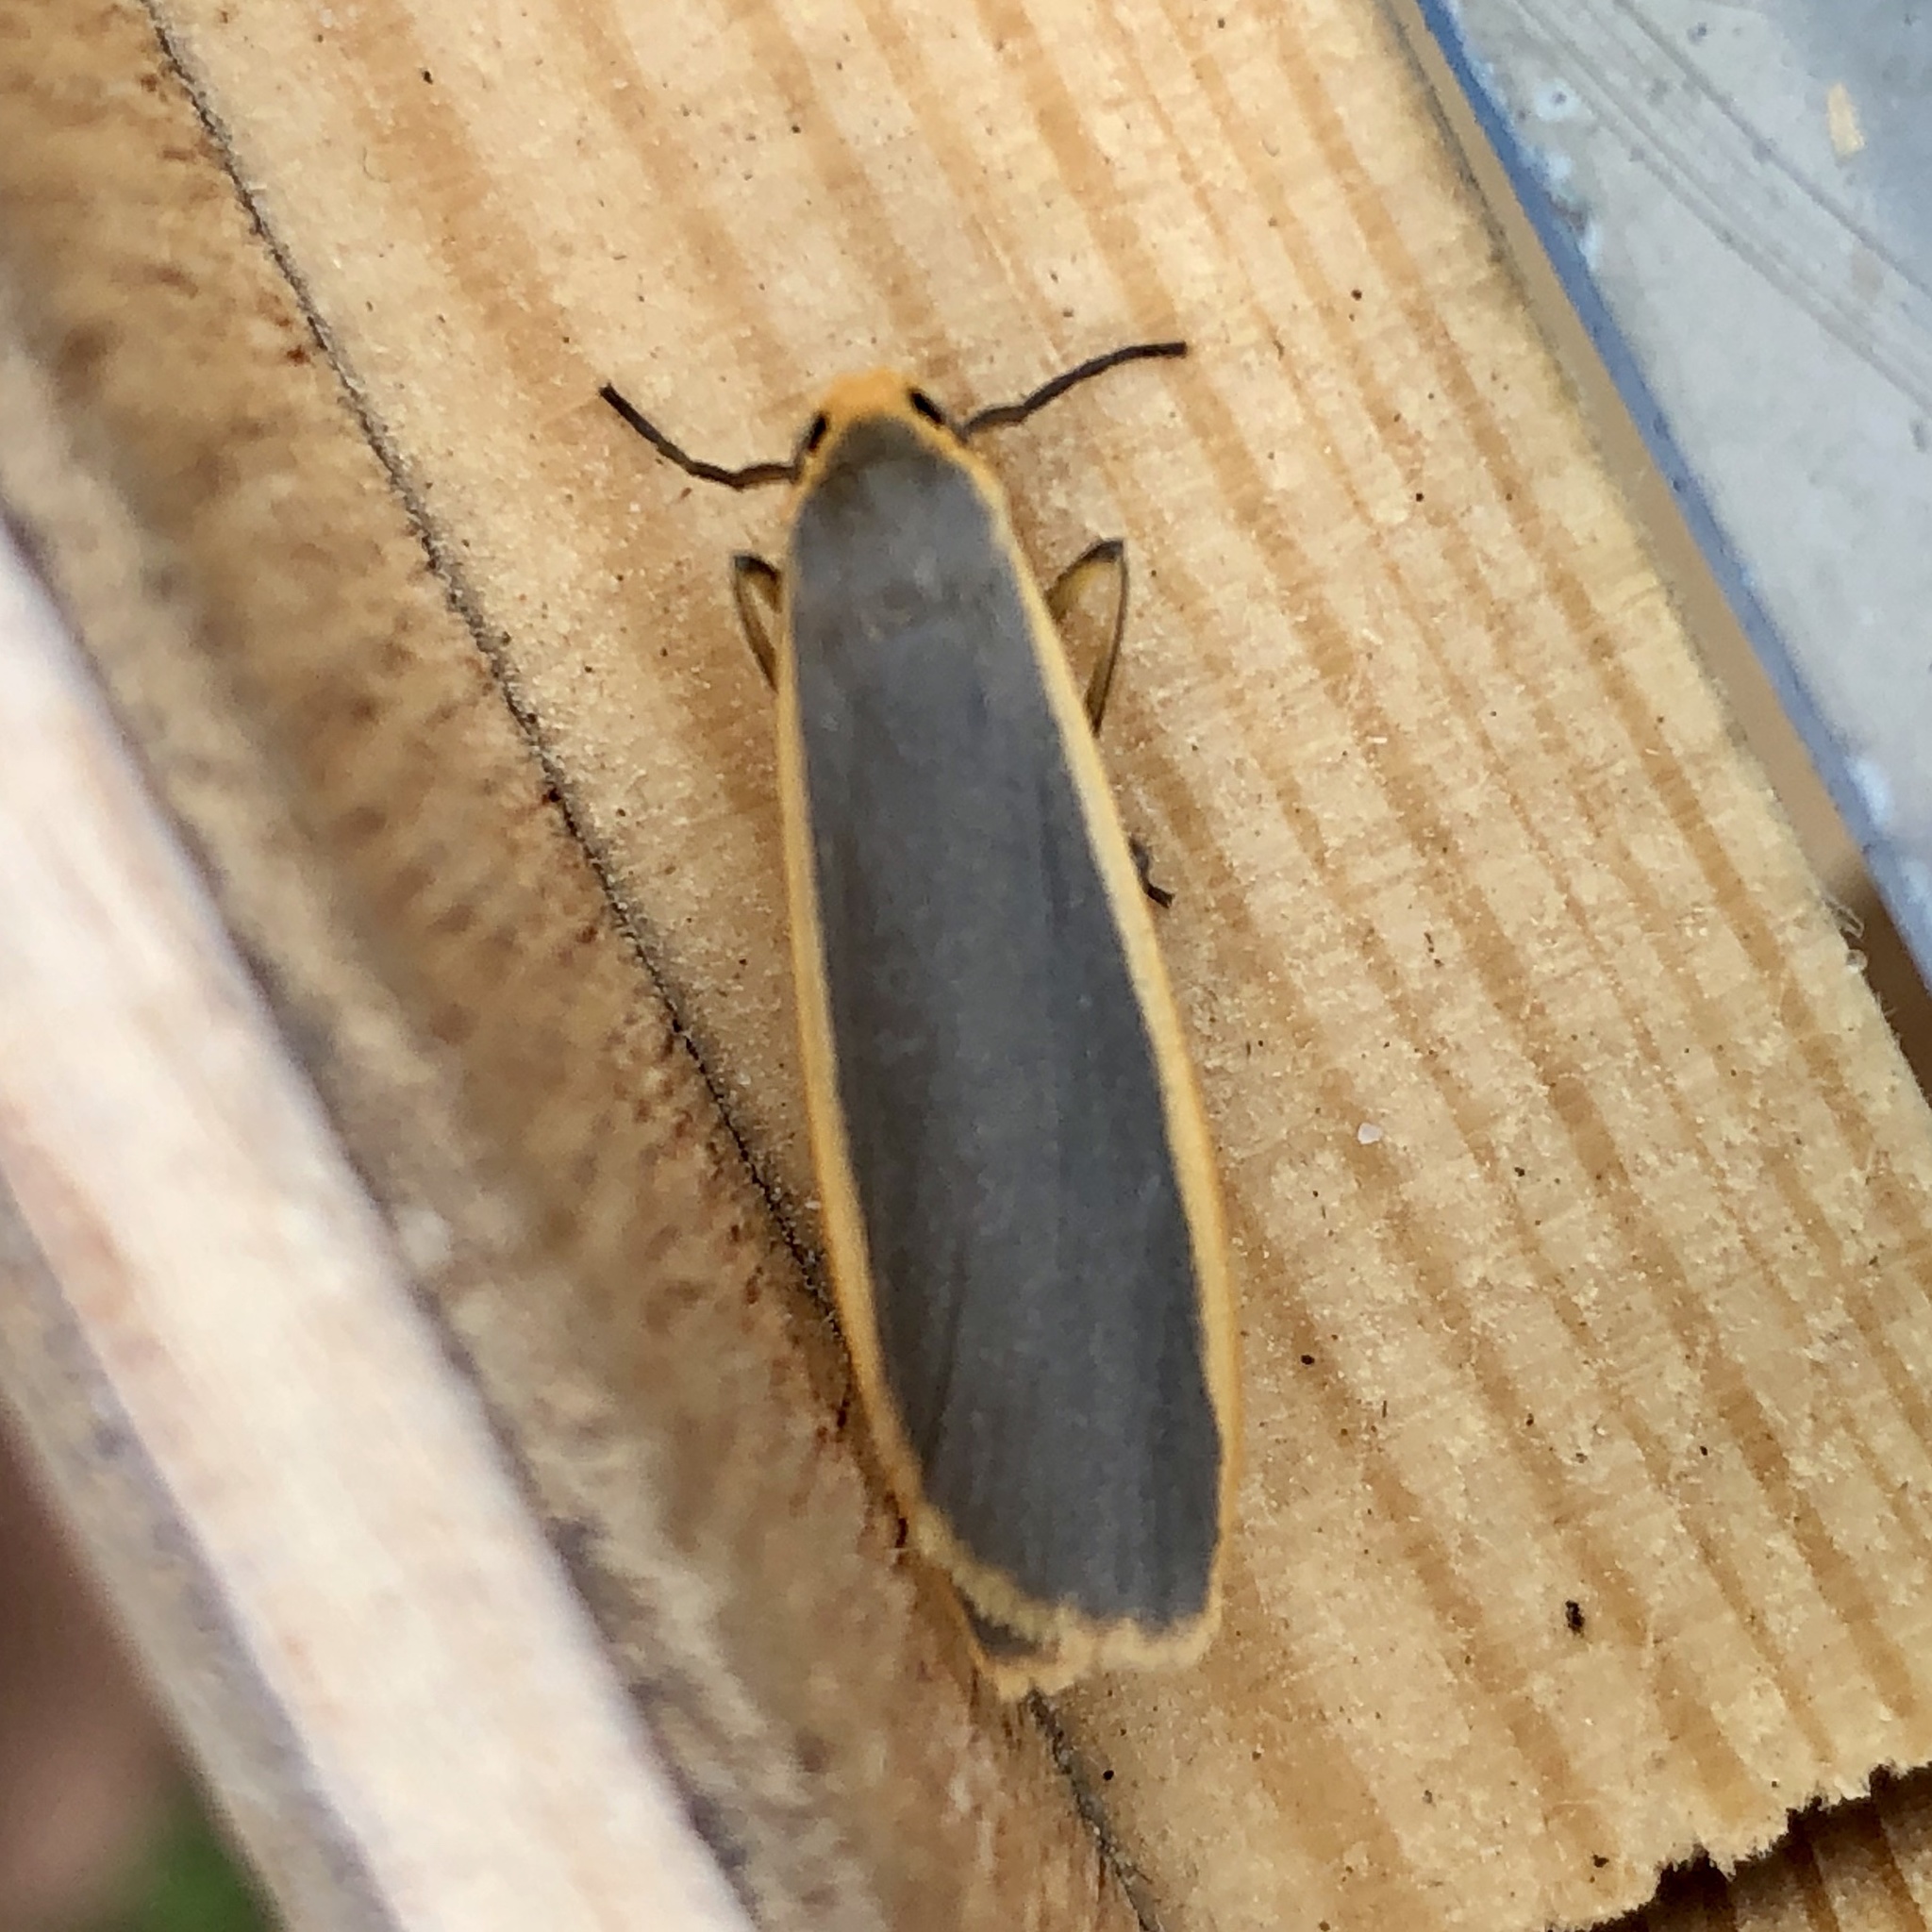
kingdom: Animalia
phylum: Arthropoda
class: Insecta
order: Lepidoptera
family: Erebidae
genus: Nyea
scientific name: Nyea lurideola
